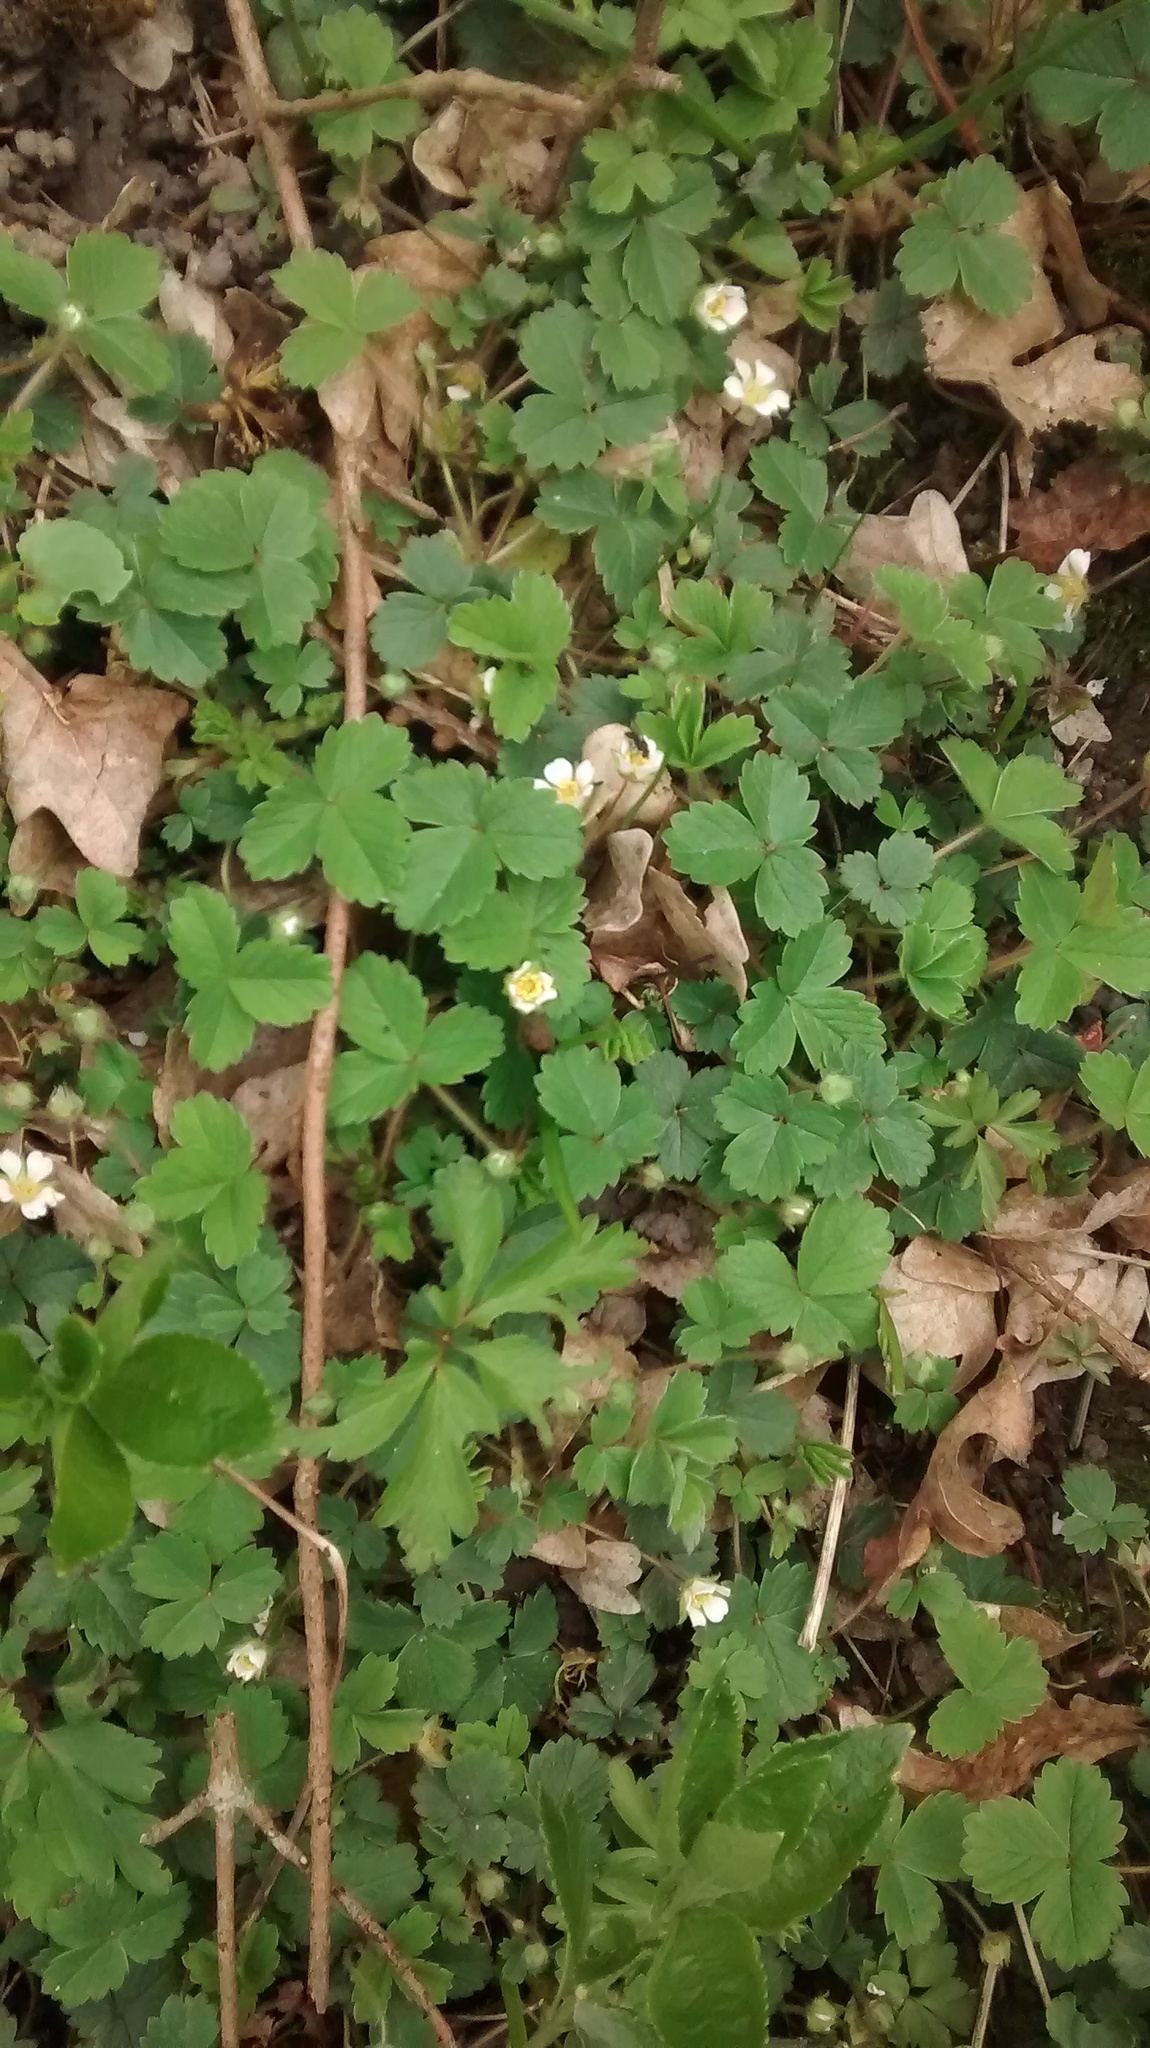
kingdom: Plantae
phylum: Tracheophyta
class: Magnoliopsida
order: Rosales
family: Rosaceae
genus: Potentilla
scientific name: Potentilla sterilis
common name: Barren strawberry
